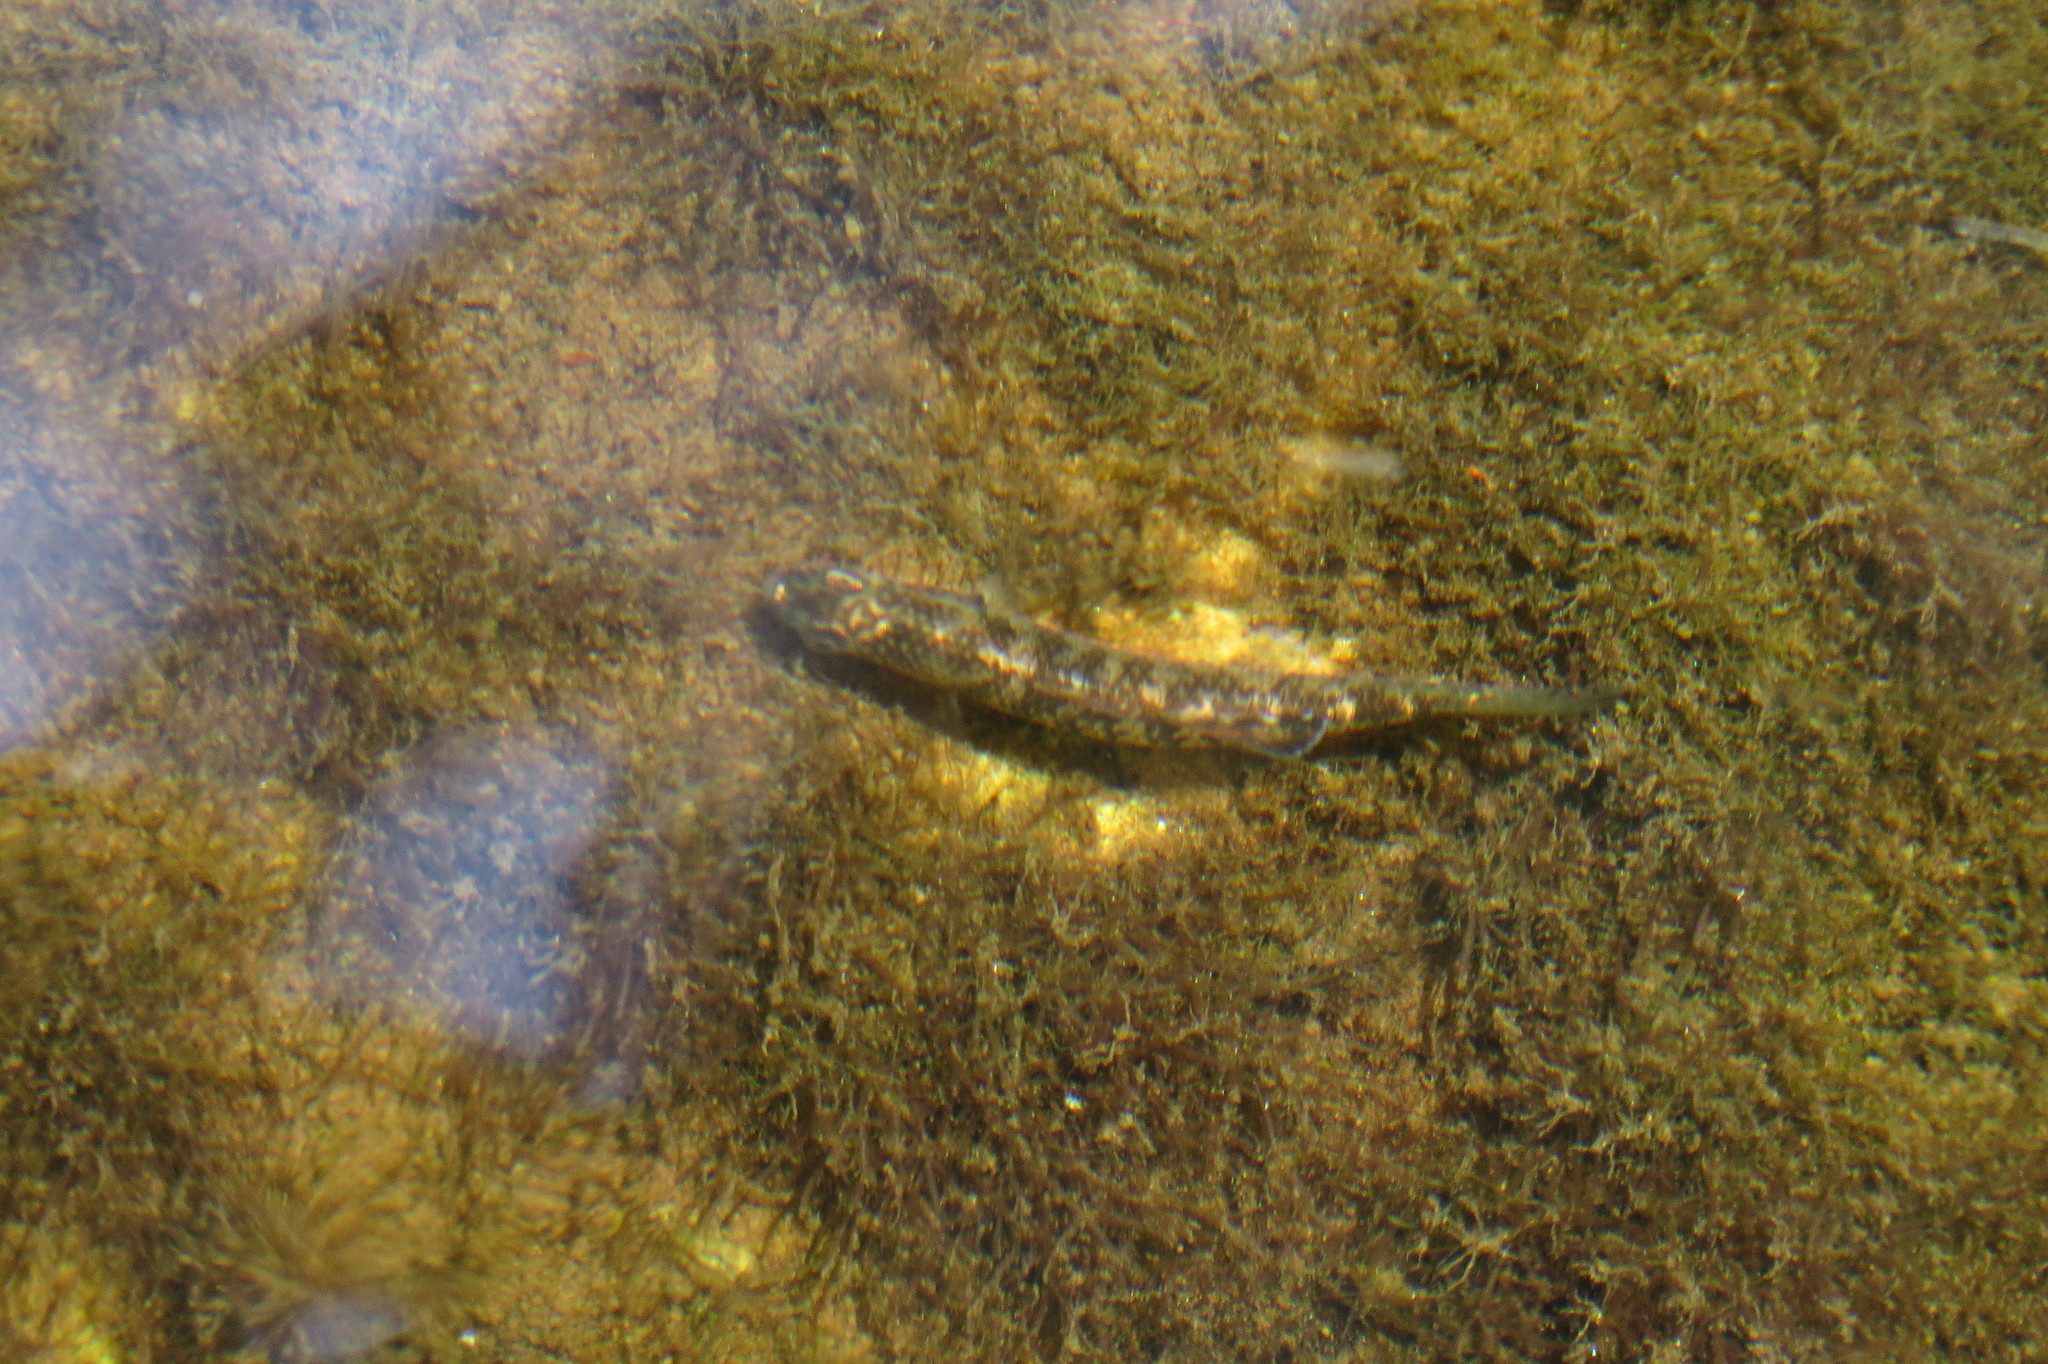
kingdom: Animalia
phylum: Chordata
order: Perciformes
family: Eleotridae
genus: Hypseleotris
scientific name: Hypseleotris compressa
